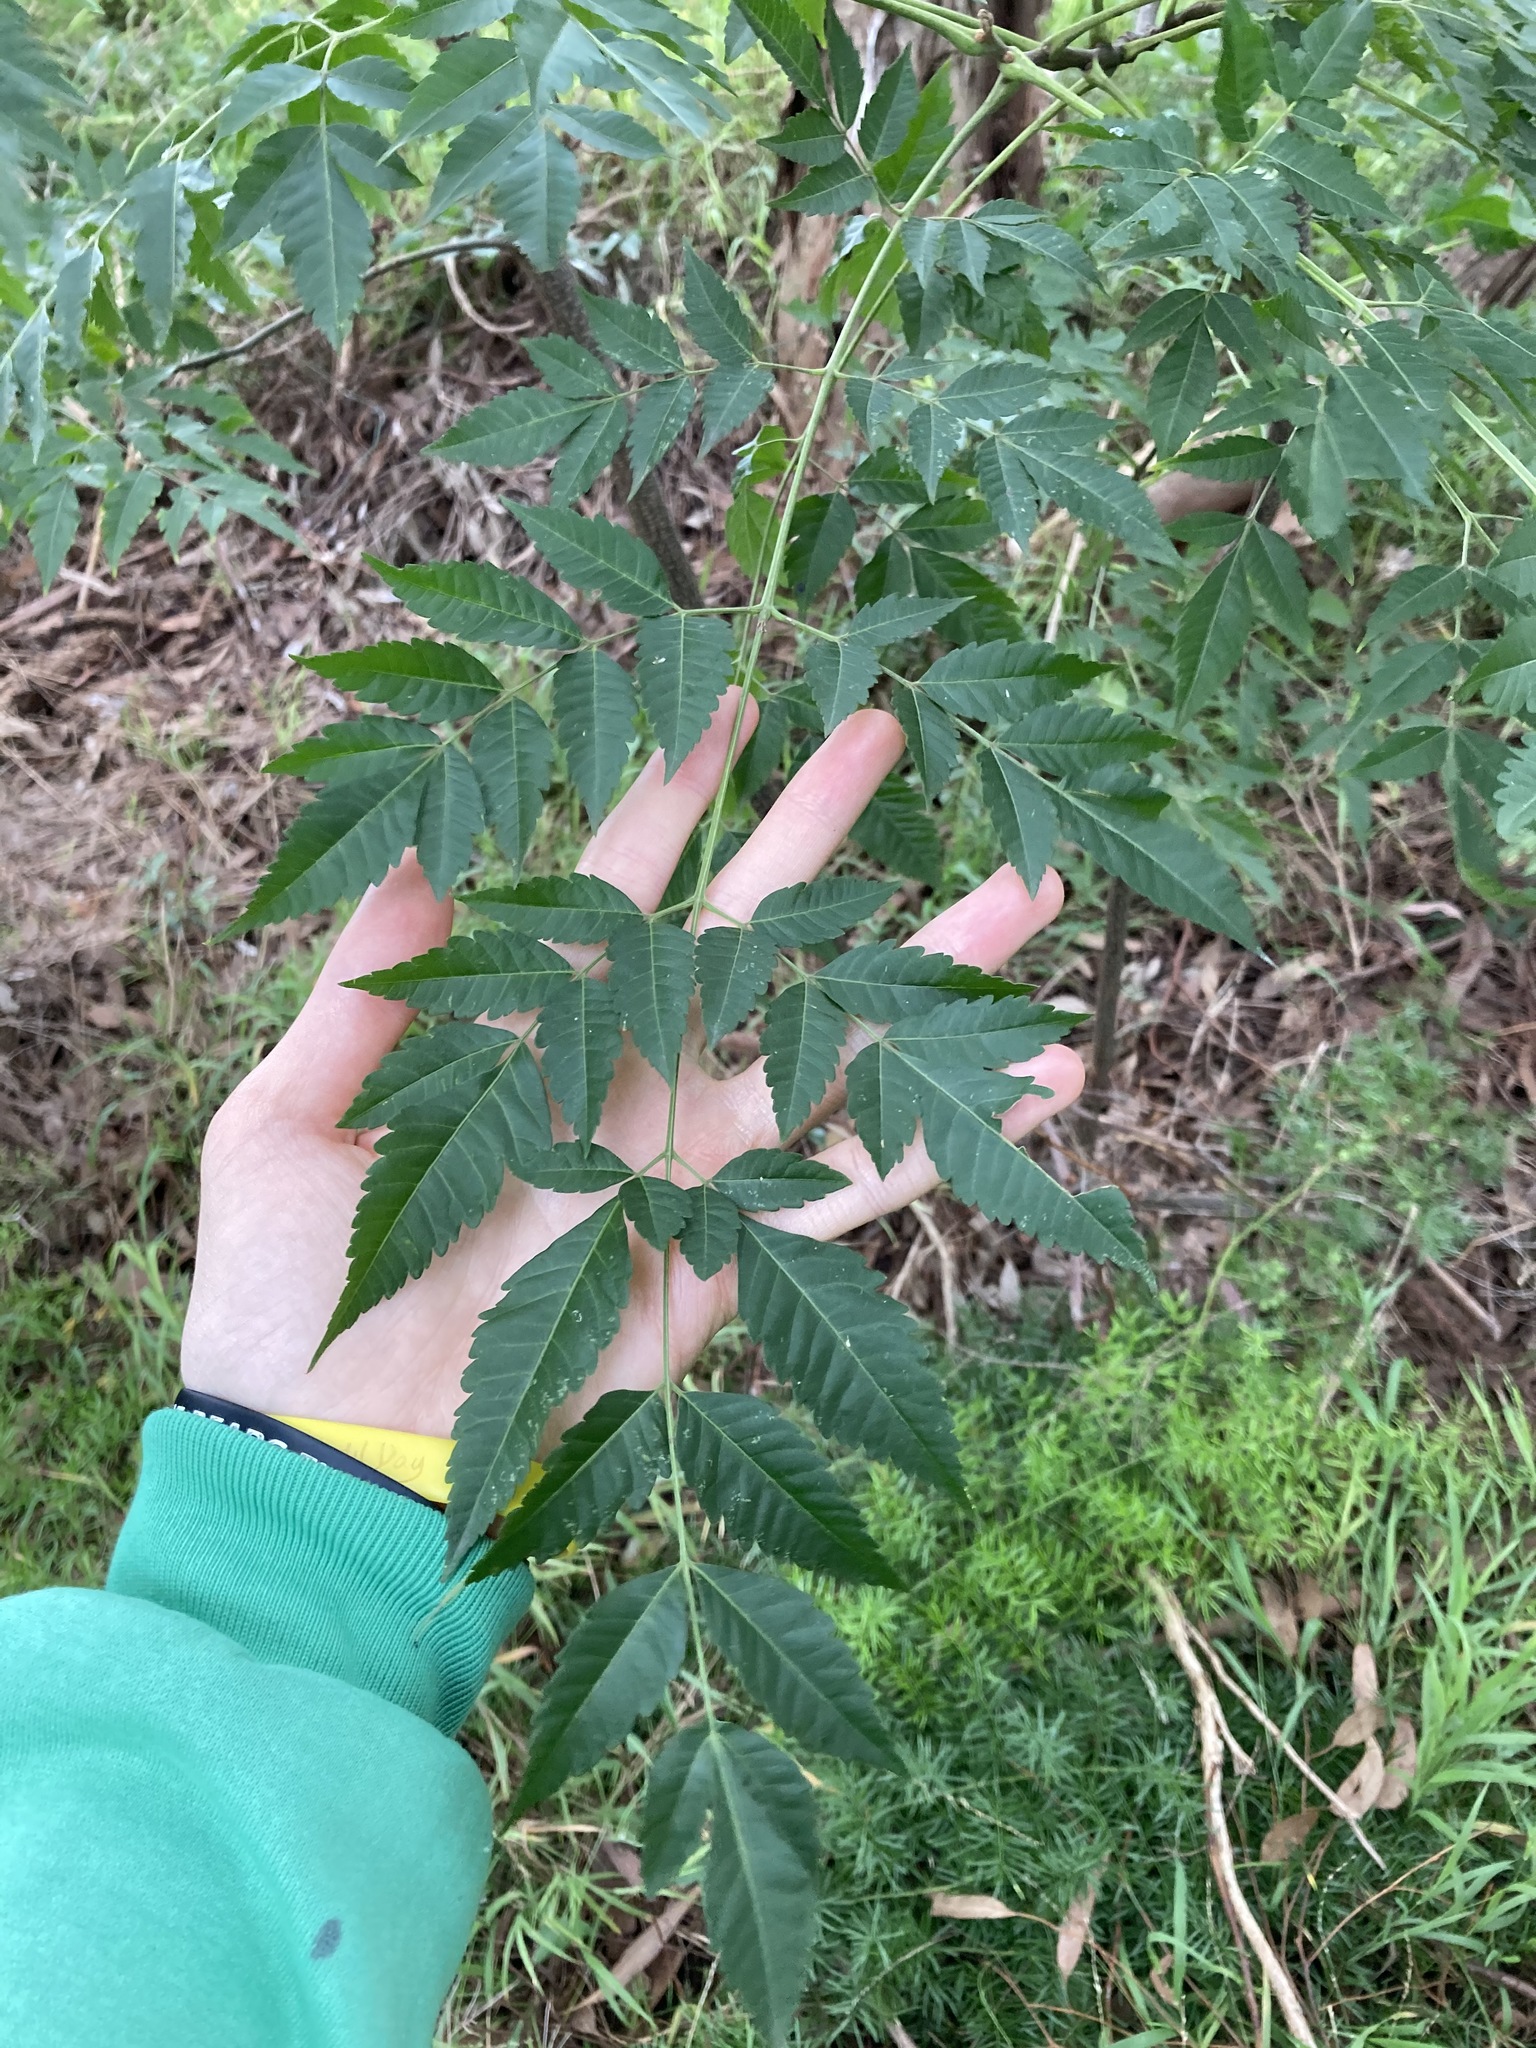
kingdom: Plantae
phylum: Tracheophyta
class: Magnoliopsida
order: Sapindales
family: Meliaceae
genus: Melia
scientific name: Melia azedarach
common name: Chinaberrytree
